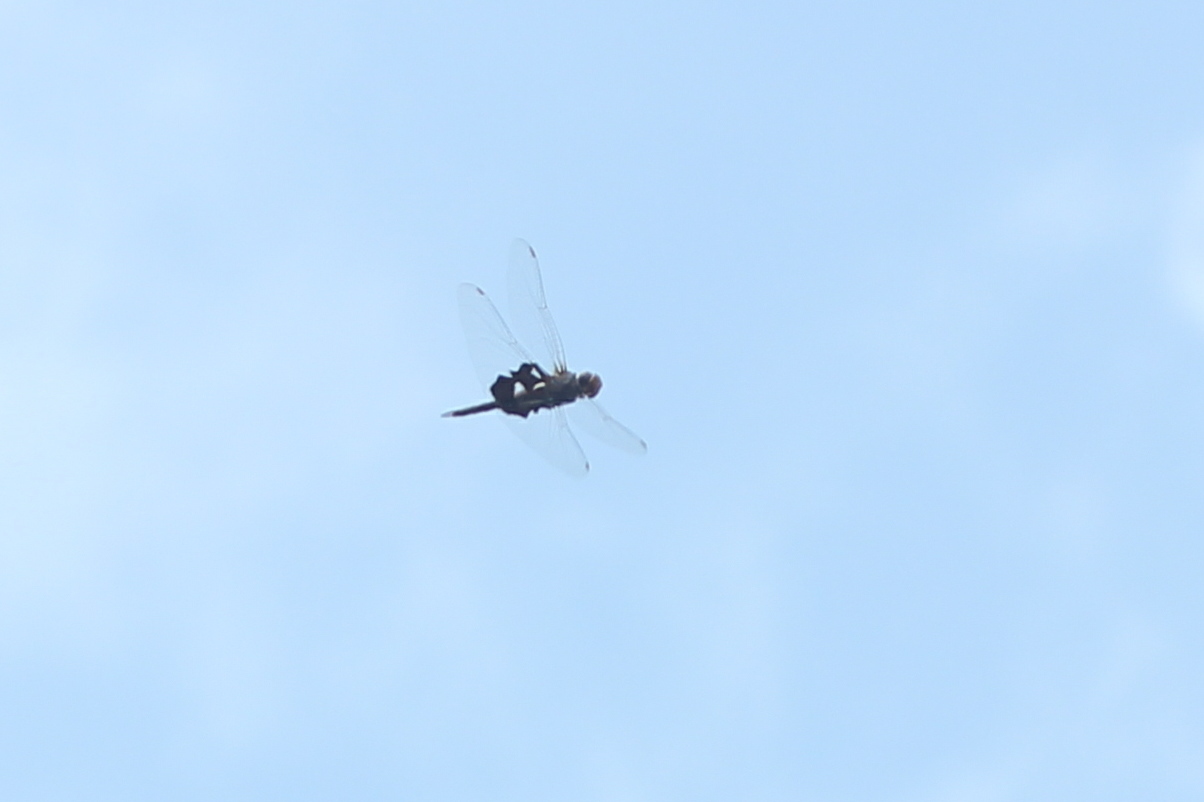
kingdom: Animalia
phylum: Arthropoda
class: Insecta
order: Odonata
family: Libellulidae
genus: Tramea
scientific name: Tramea lacerata
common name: Black saddlebags
